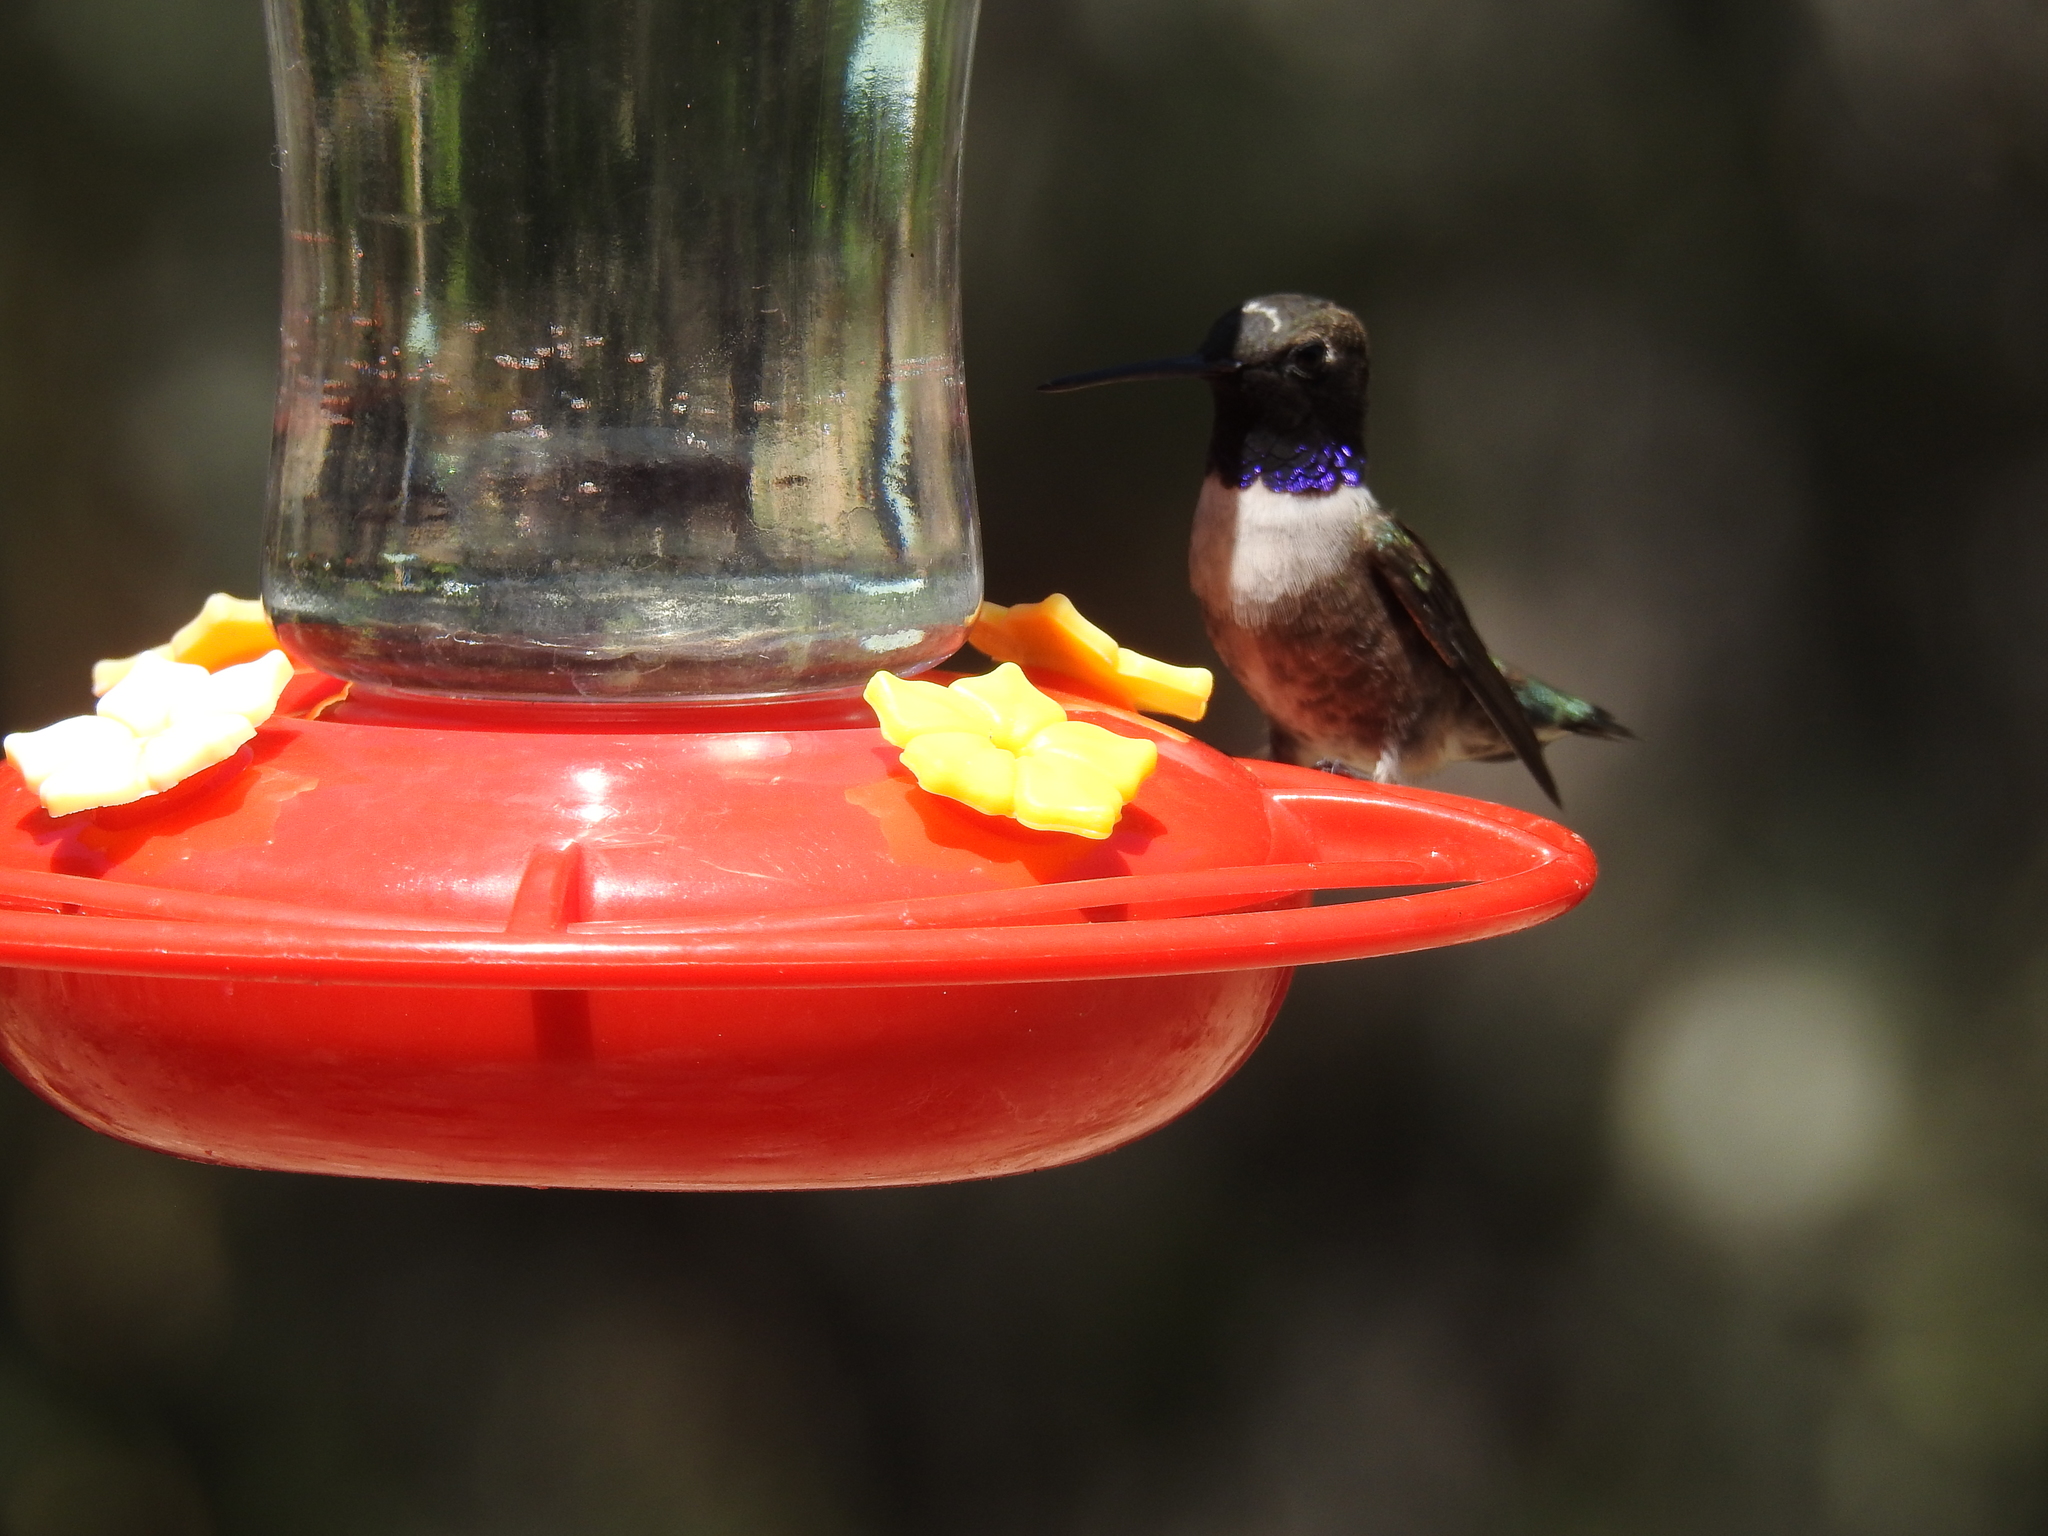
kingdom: Animalia
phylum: Chordata
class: Aves
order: Apodiformes
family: Trochilidae
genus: Archilochus
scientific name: Archilochus alexandri
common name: Black-chinned hummingbird
